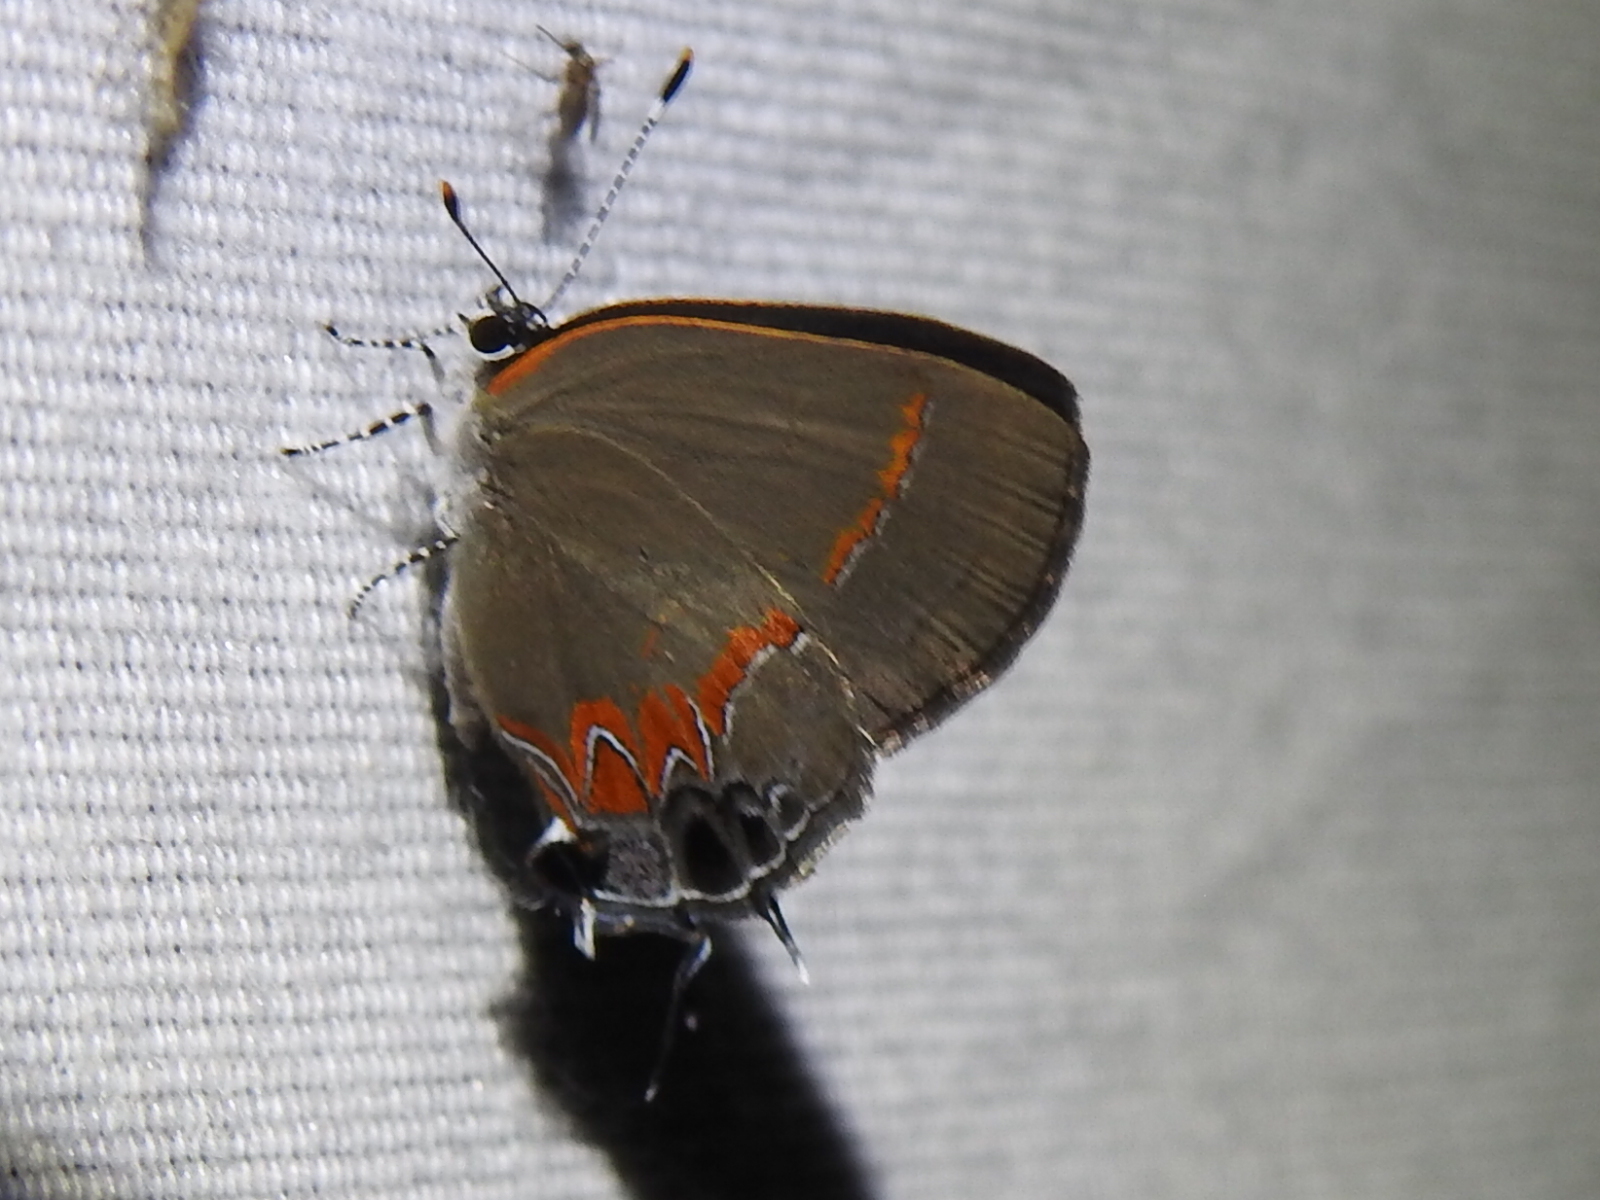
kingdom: Animalia
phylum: Arthropoda
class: Insecta
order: Lepidoptera
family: Lycaenidae
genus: Calycopis
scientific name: Calycopis cecrops
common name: Red-banded hairstreak
